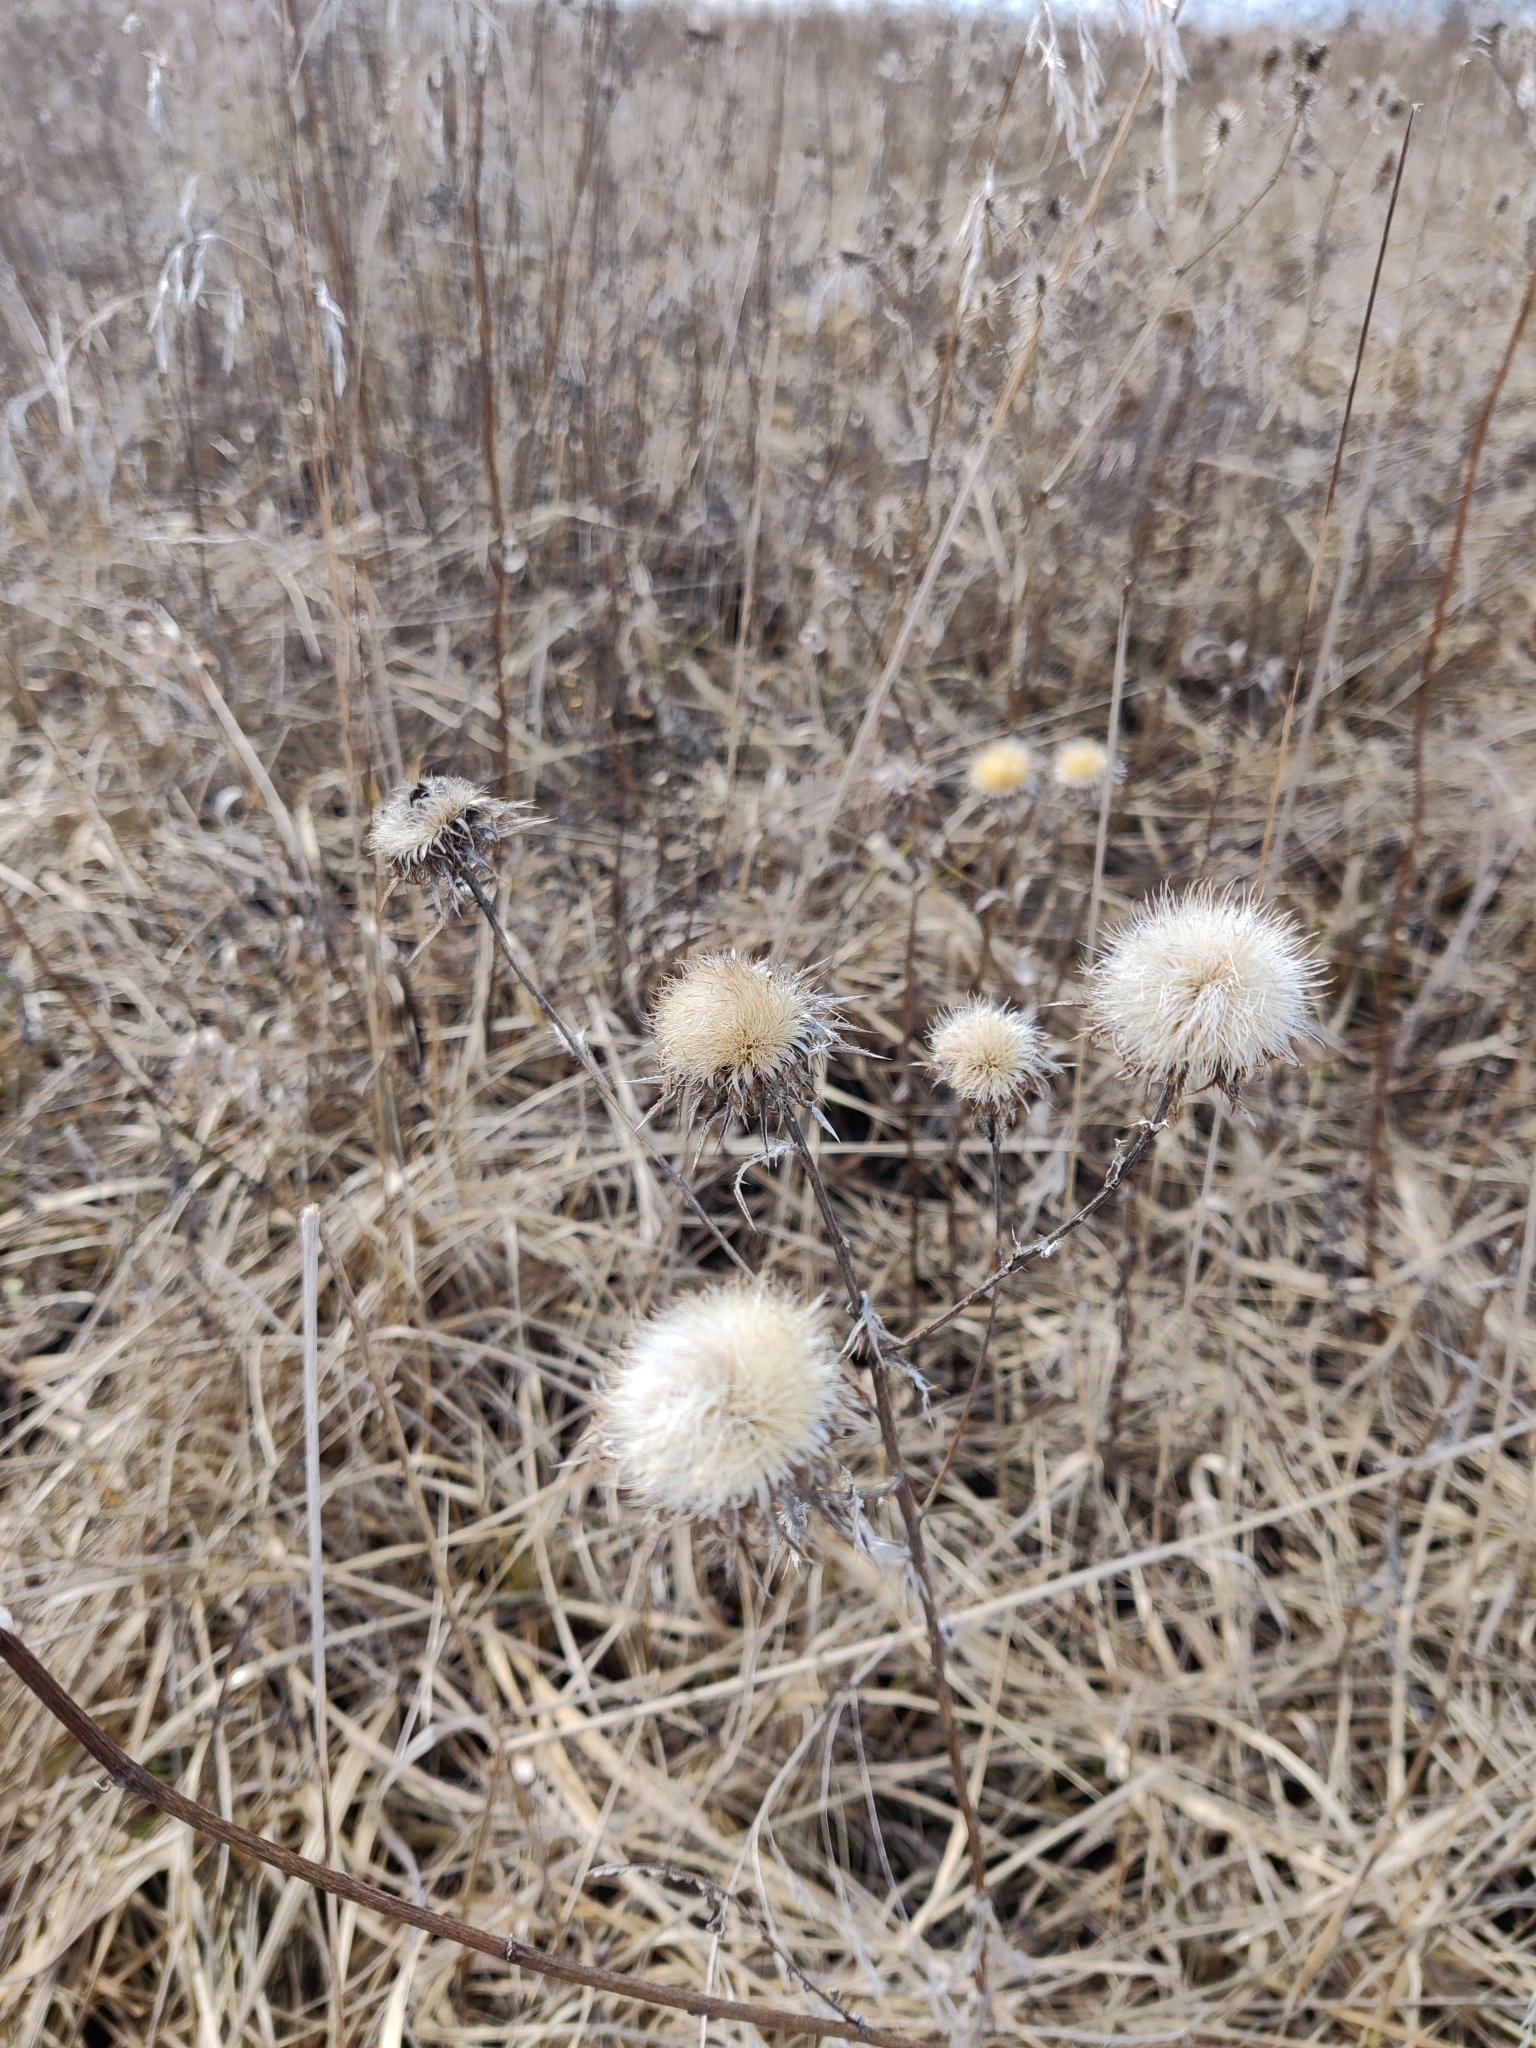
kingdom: Plantae
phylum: Tracheophyta
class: Magnoliopsida
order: Asterales
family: Asteraceae
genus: Carlina
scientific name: Carlina biebersteinii
